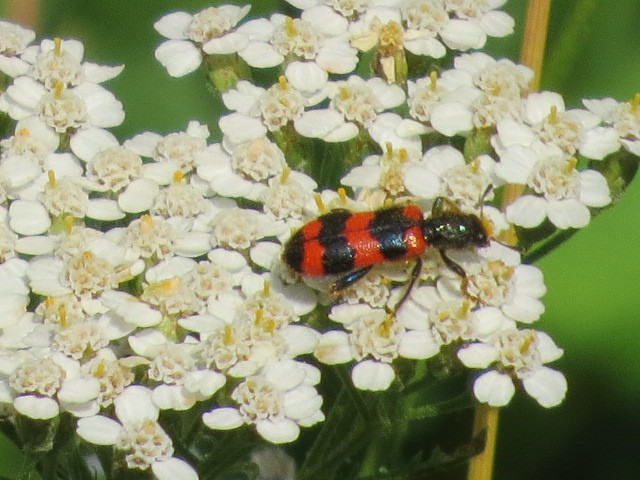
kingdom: Animalia
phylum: Arthropoda
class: Insecta
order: Coleoptera
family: Cleridae
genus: Trichodes
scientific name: Trichodes apiarius
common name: Bee-eating beetle
